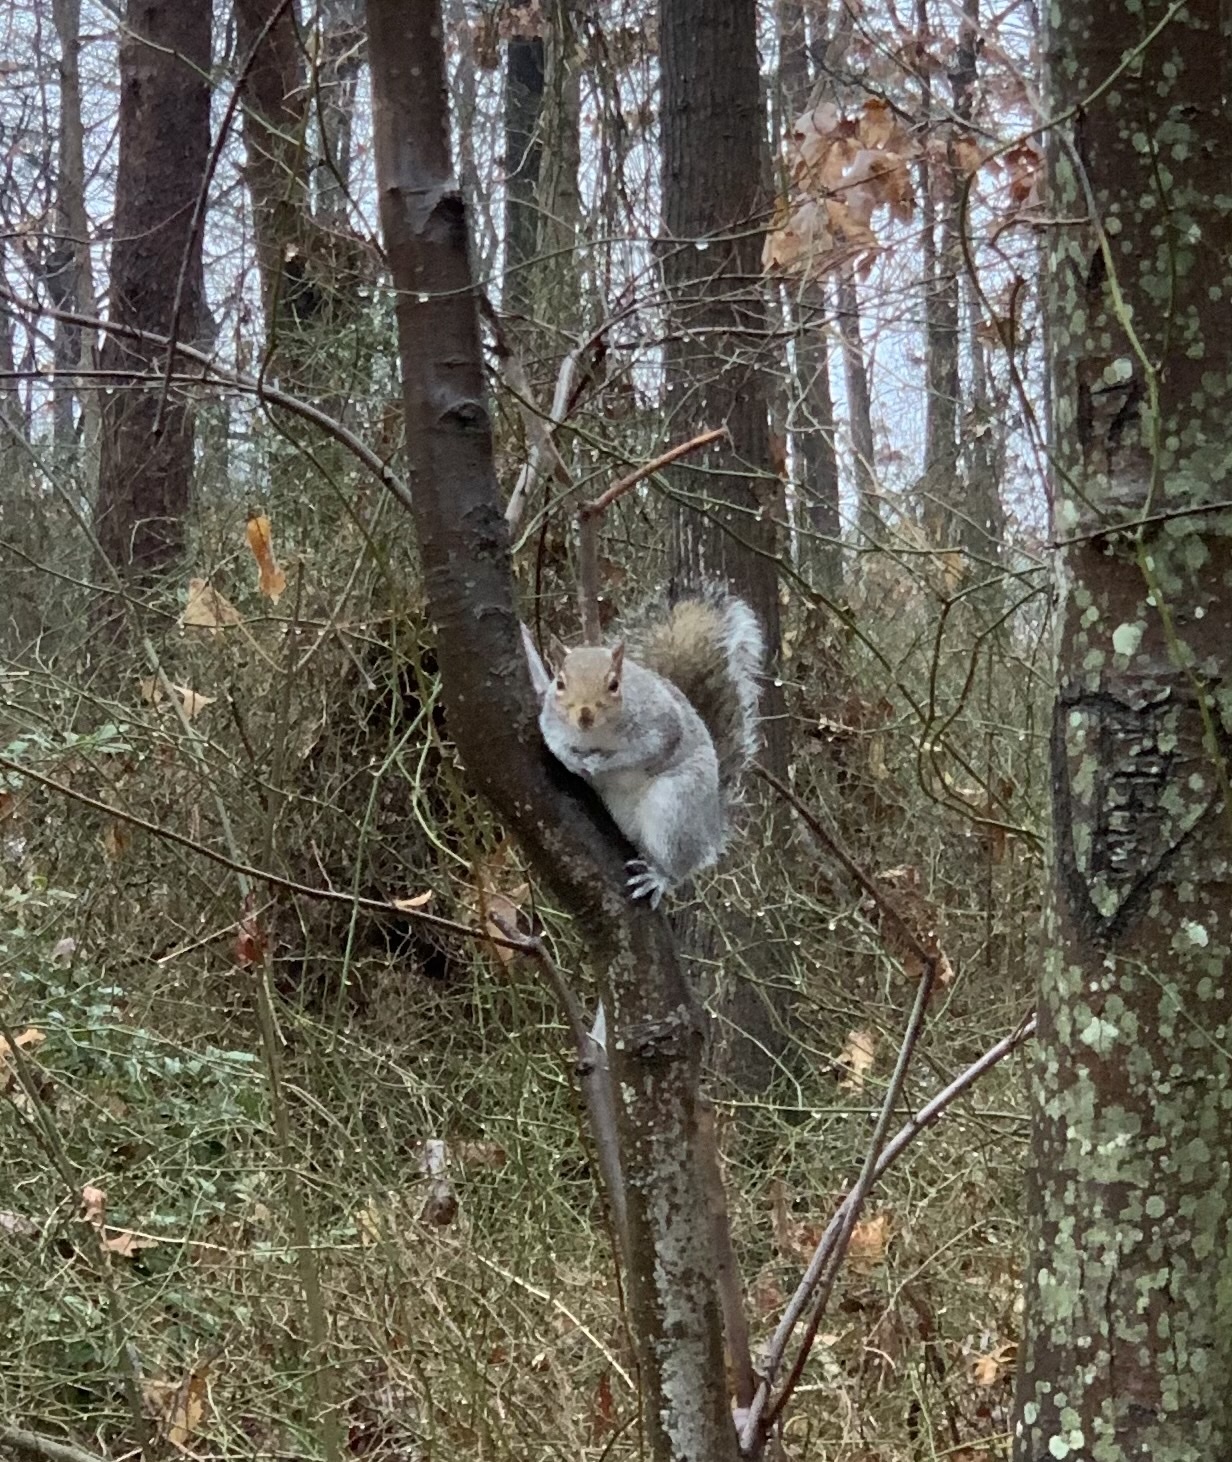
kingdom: Animalia
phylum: Chordata
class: Mammalia
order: Rodentia
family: Sciuridae
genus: Sciurus
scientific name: Sciurus carolinensis
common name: Eastern gray squirrel
